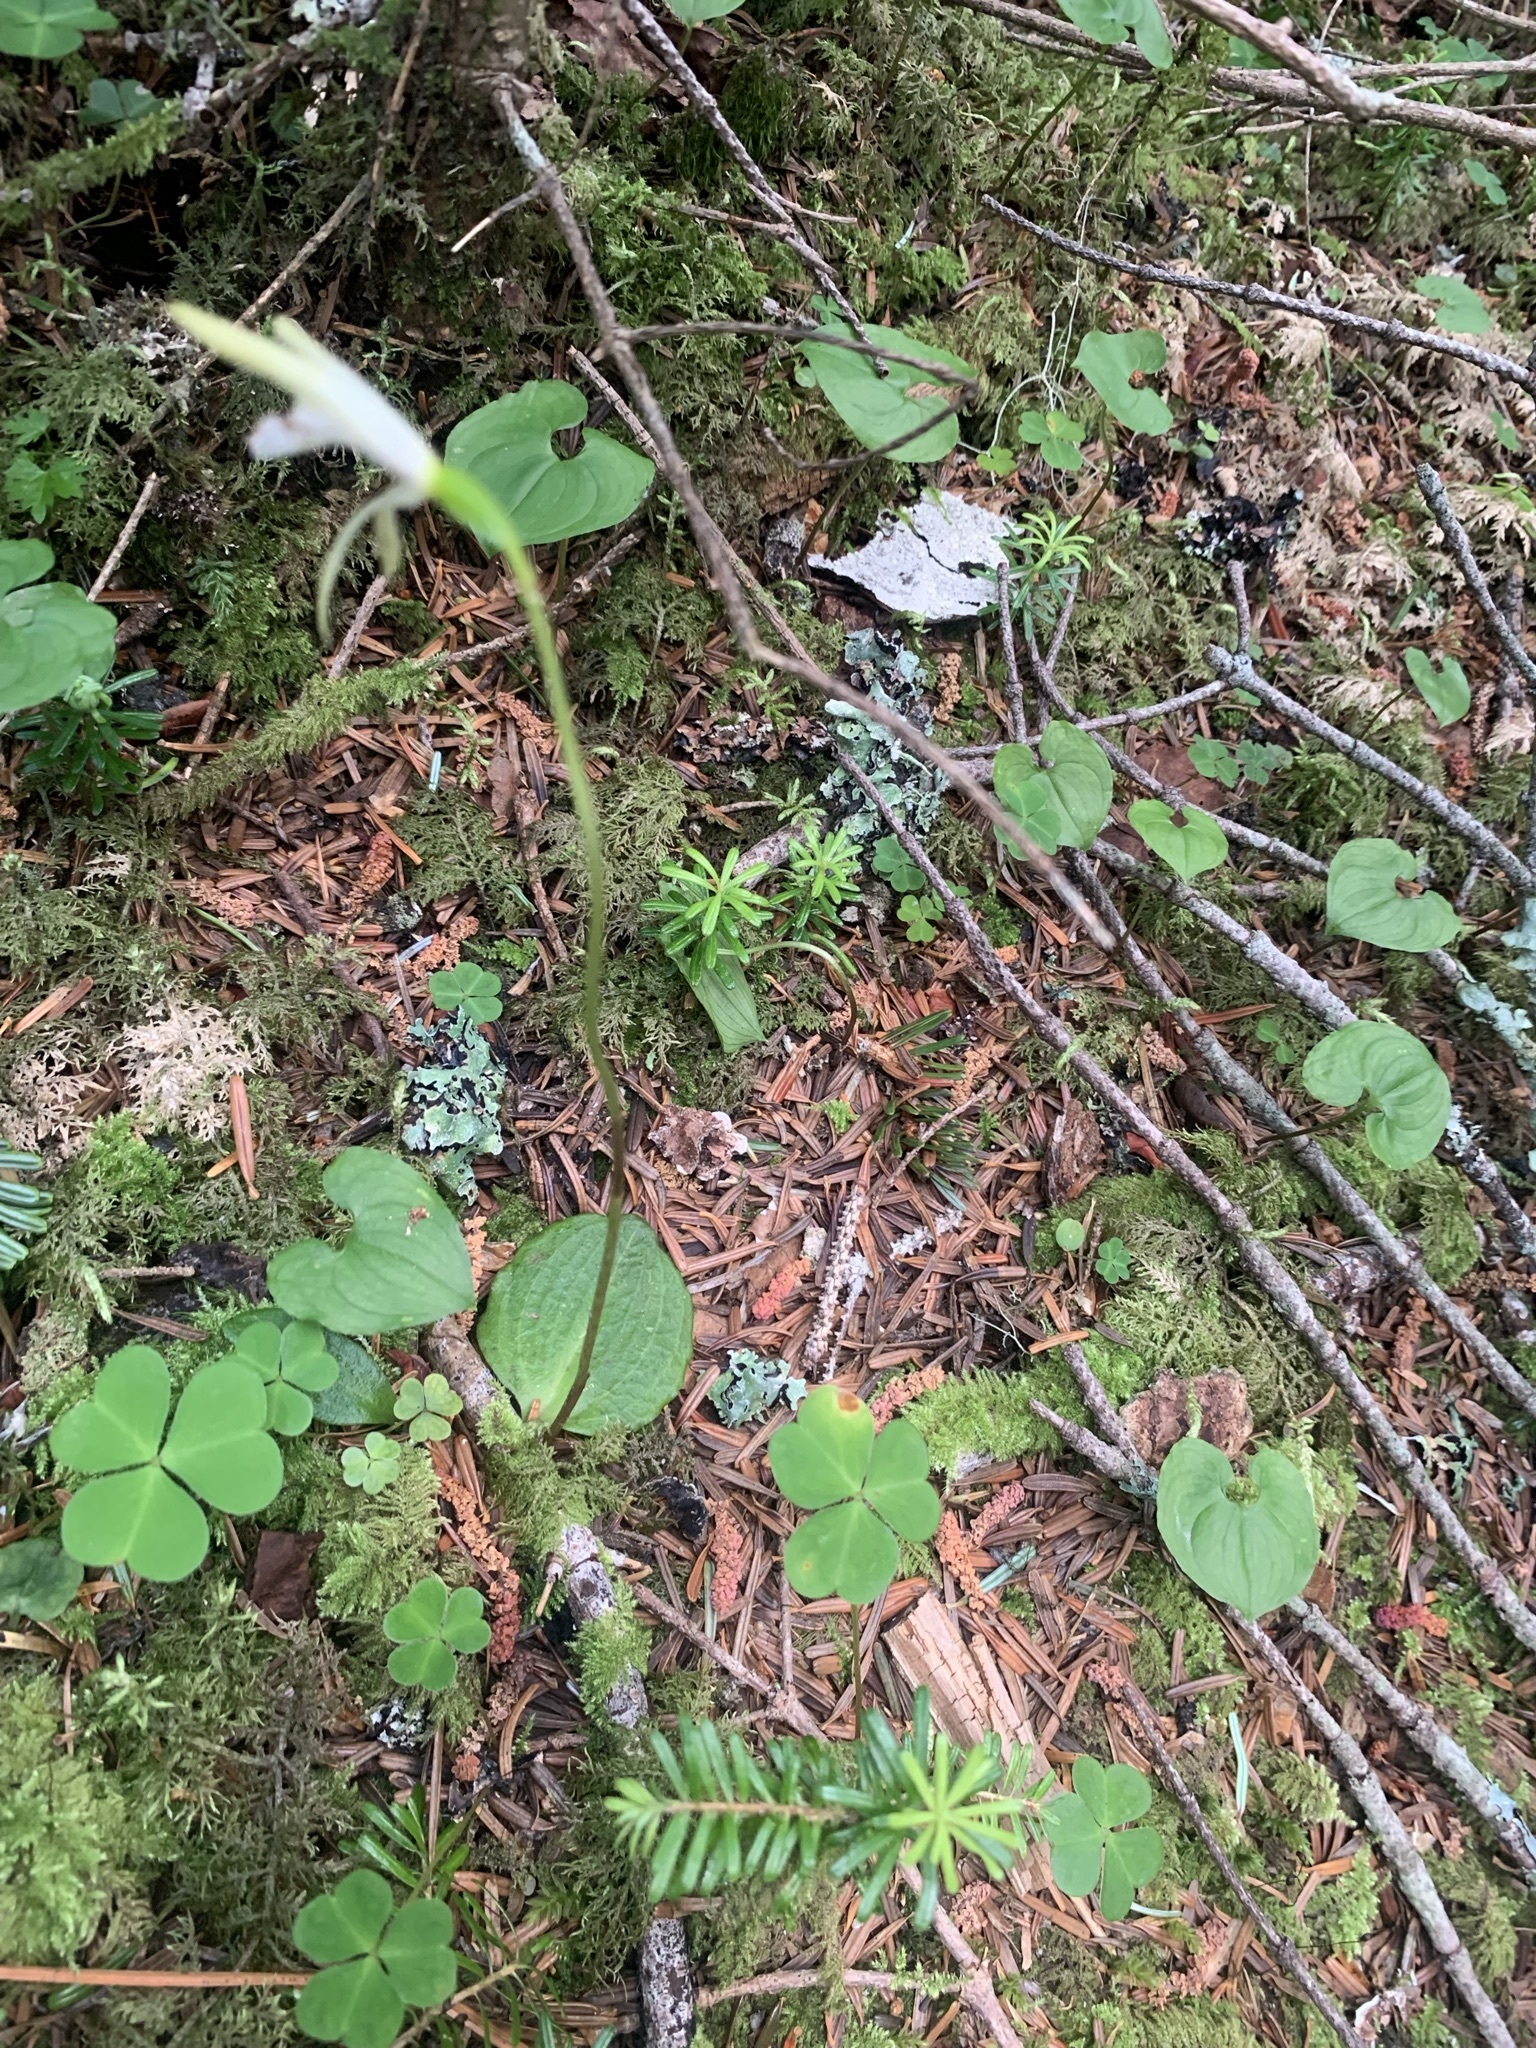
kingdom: Plantae
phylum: Tracheophyta
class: Liliopsida
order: Asparagales
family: Orchidaceae
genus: Dactylostalix
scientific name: Dactylostalix ringens
